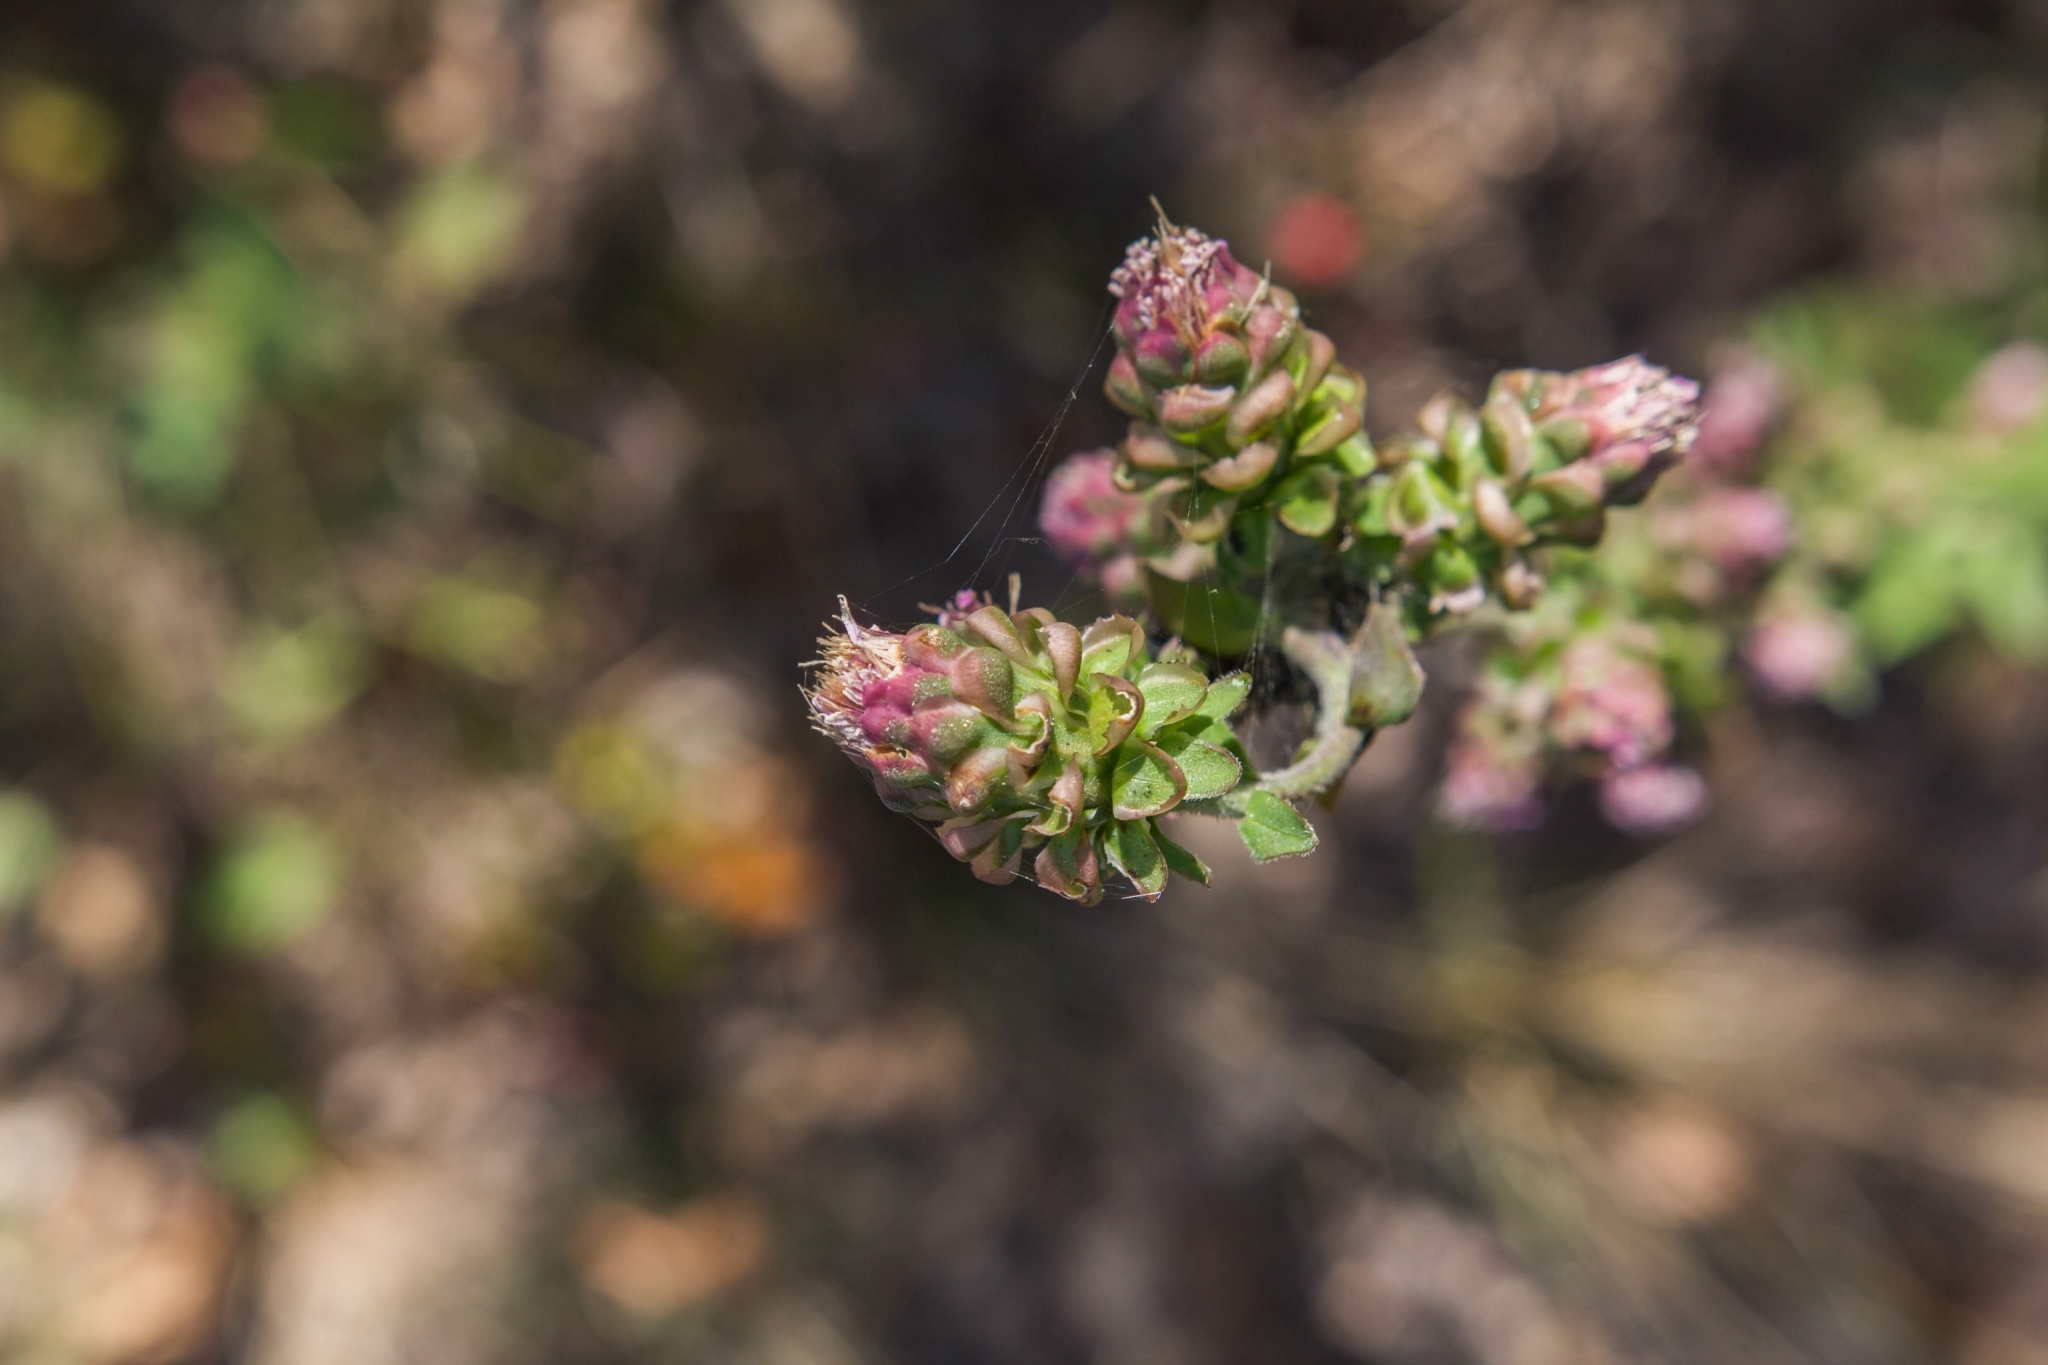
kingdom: Plantae
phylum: Tracheophyta
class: Magnoliopsida
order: Asterales
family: Asteraceae
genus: Liatris
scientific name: Liatris aspera
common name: Lacerate blazing-star
